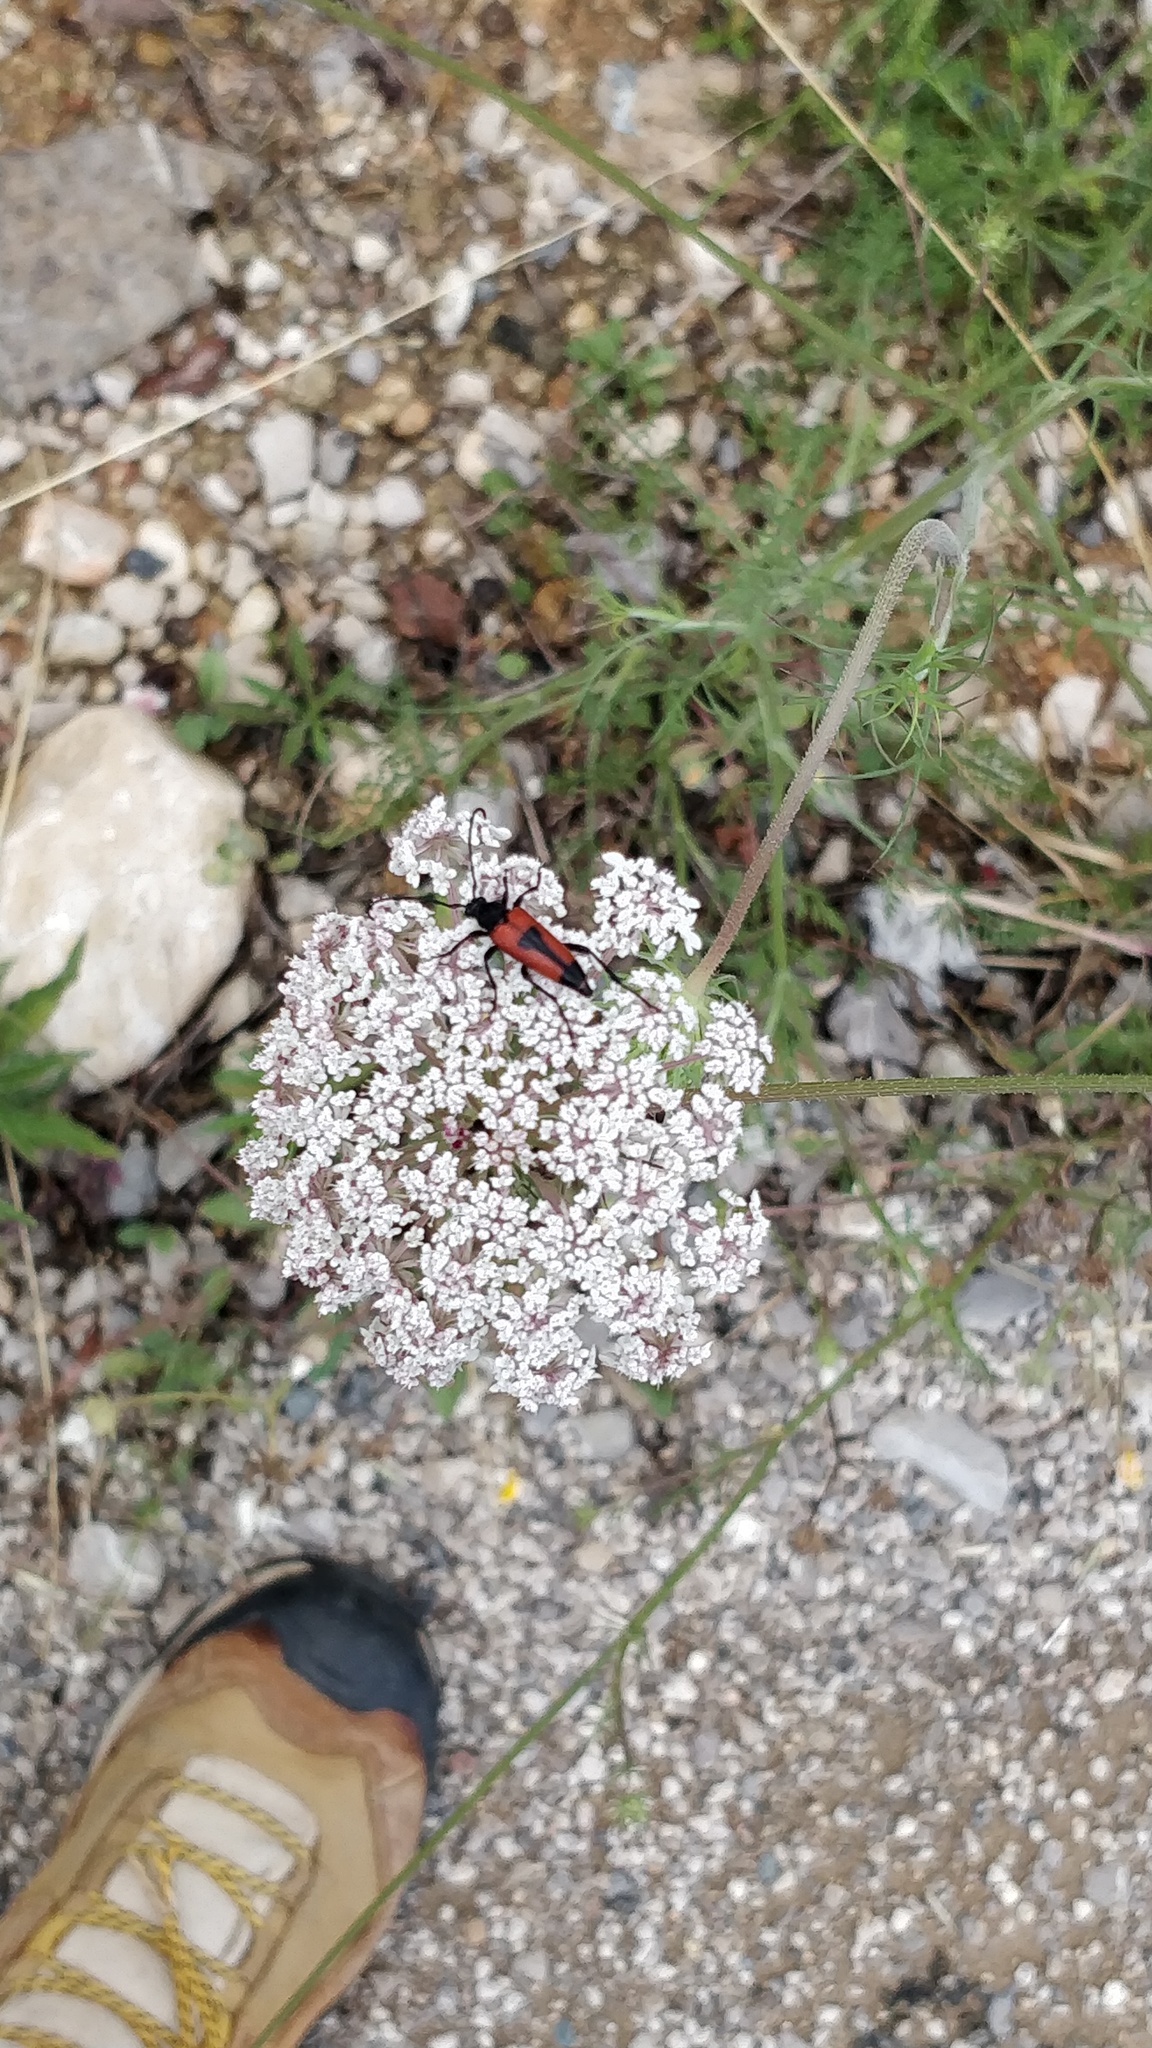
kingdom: Animalia
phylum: Arthropoda
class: Insecta
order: Coleoptera
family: Cerambycidae
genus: Stictoleptura
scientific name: Stictoleptura cordigera
